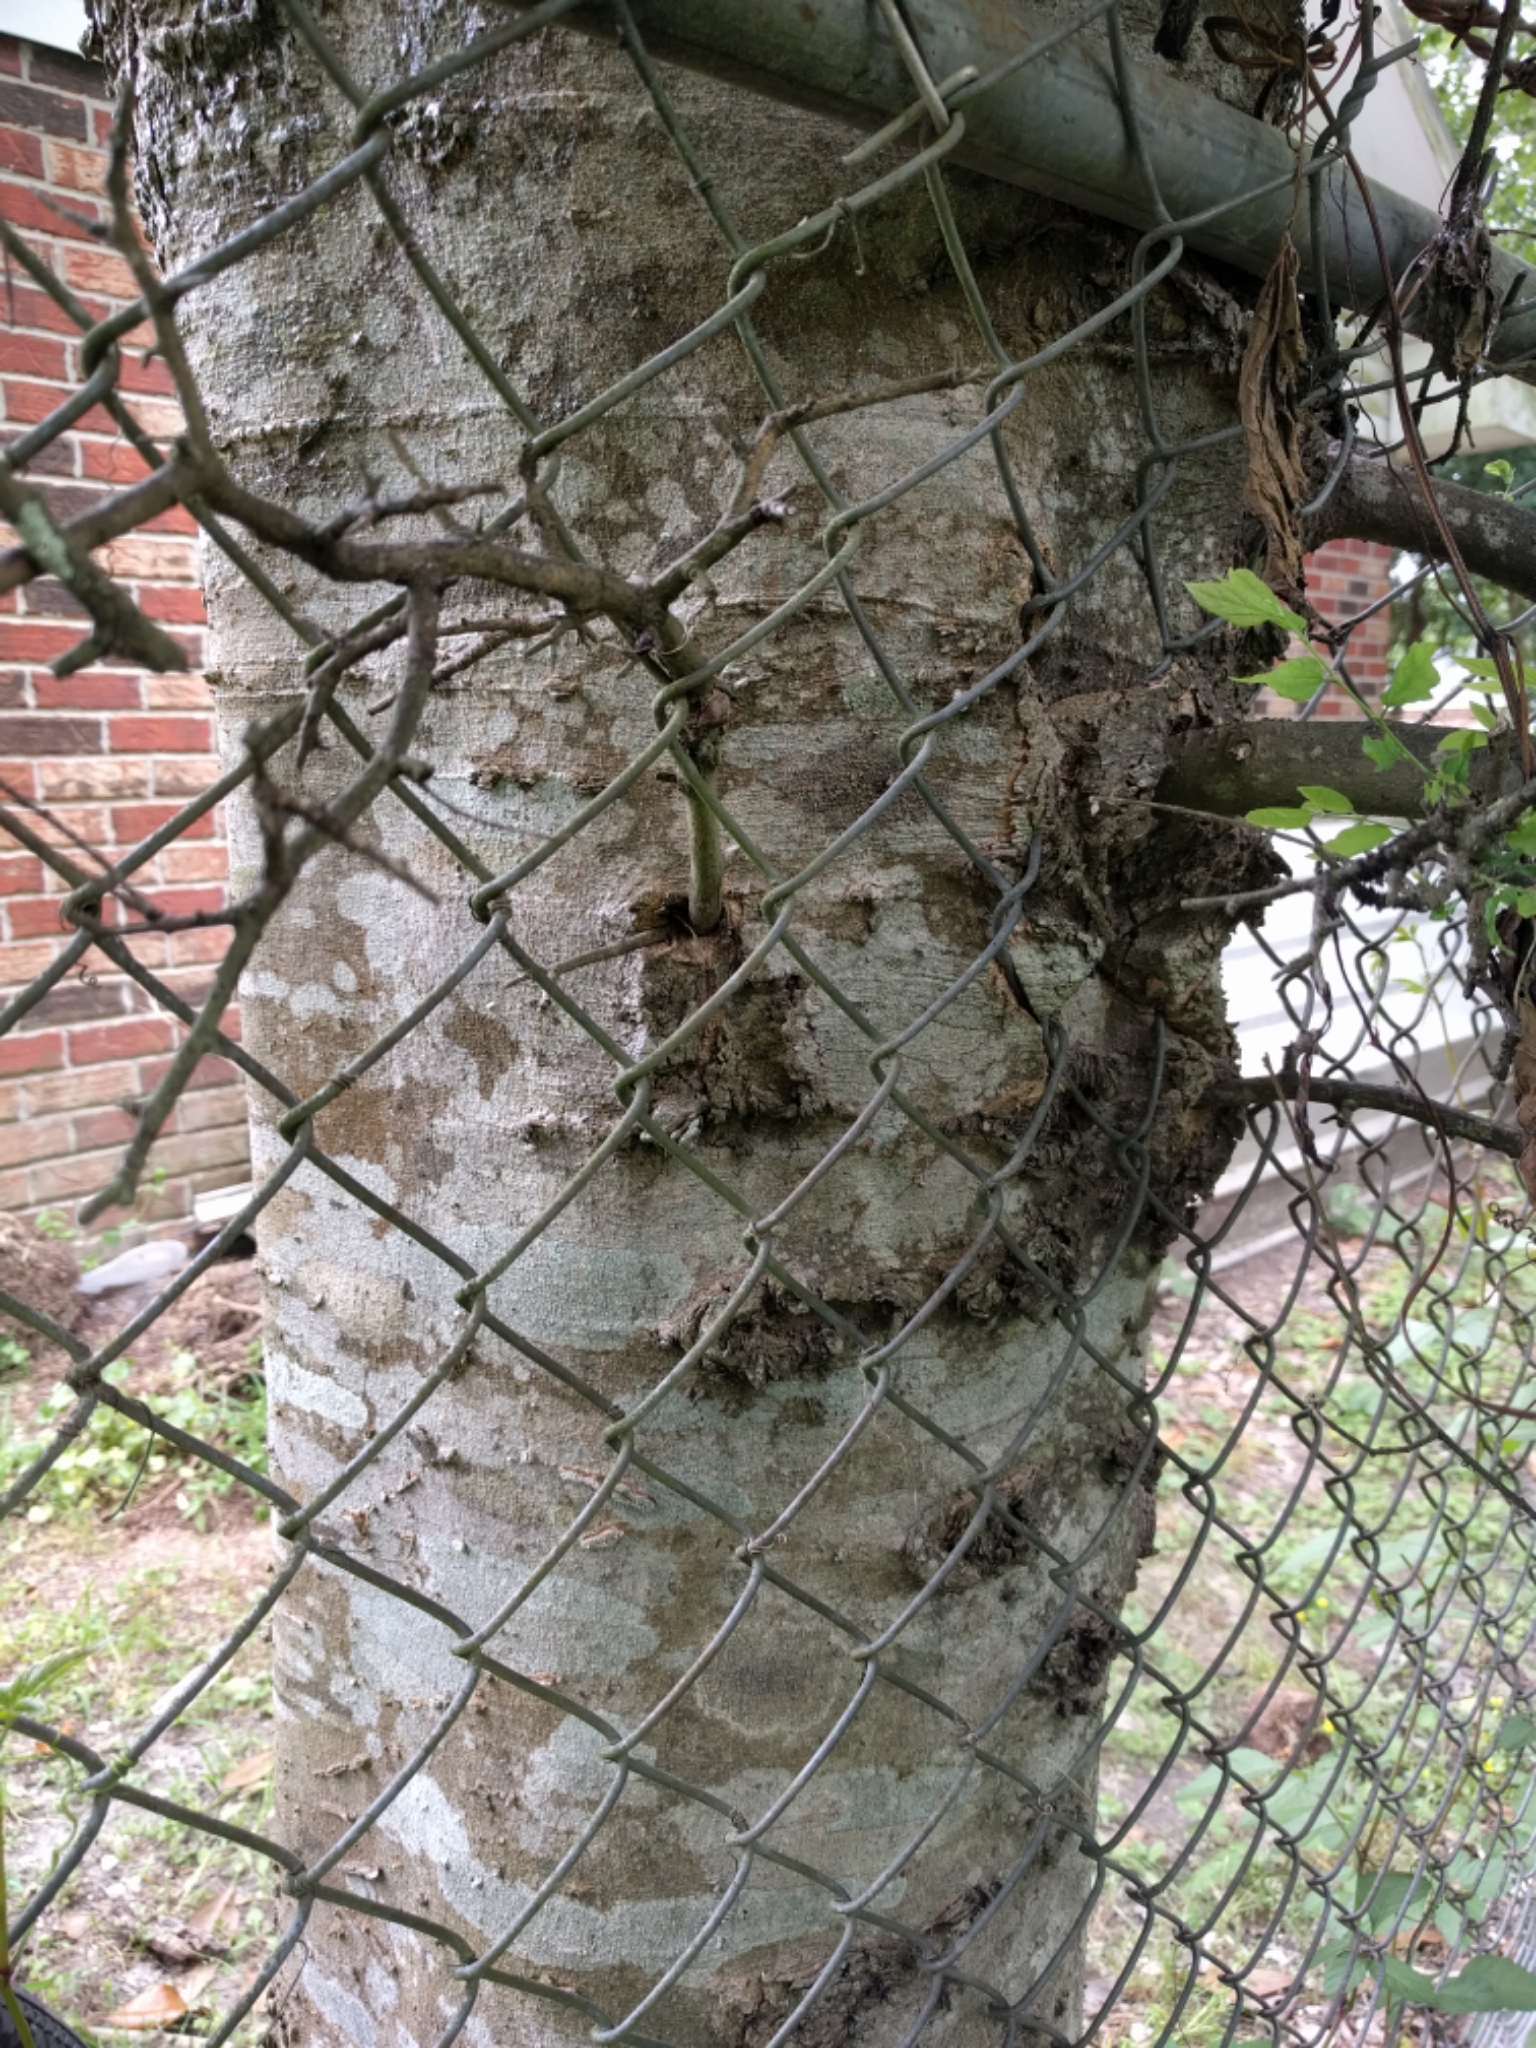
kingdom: Plantae
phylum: Tracheophyta
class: Magnoliopsida
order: Rosales
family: Cannabaceae
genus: Celtis
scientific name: Celtis laevigata
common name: Sugarberry
